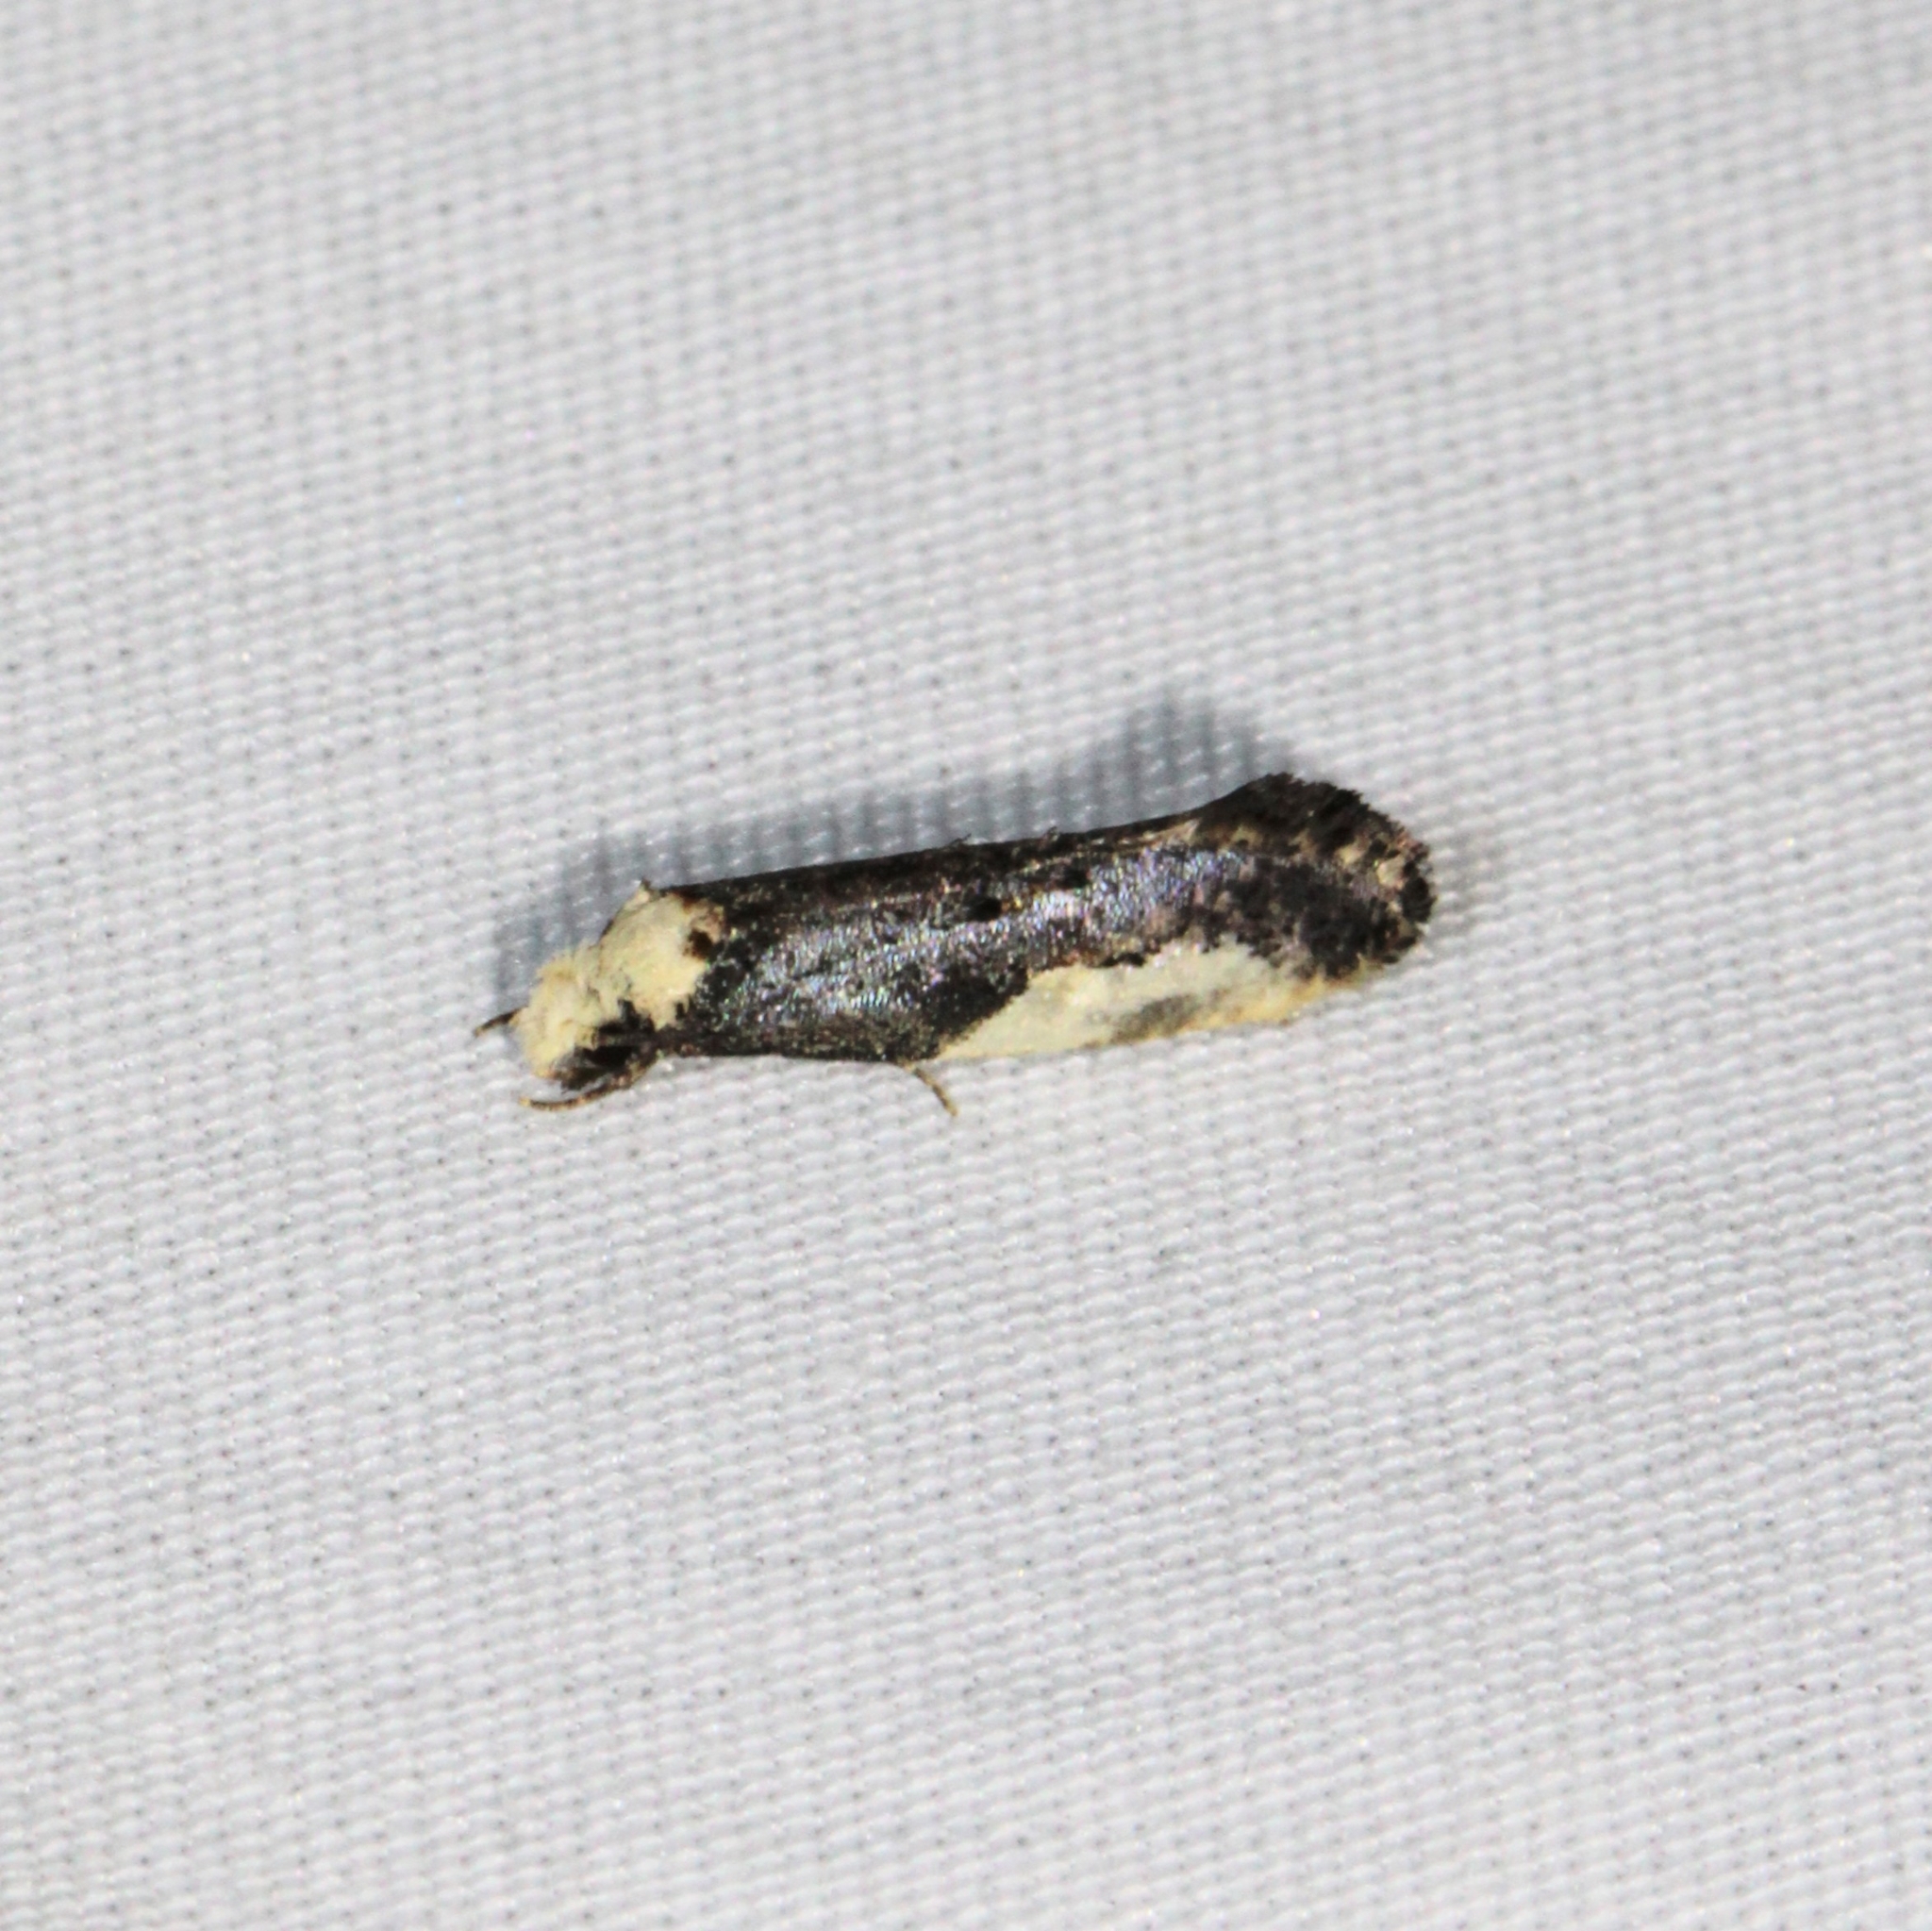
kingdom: Animalia
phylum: Arthropoda
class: Insecta
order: Lepidoptera
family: Tineidae
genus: Monopis
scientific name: Monopis longella
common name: Pavlovski's monopis moth
